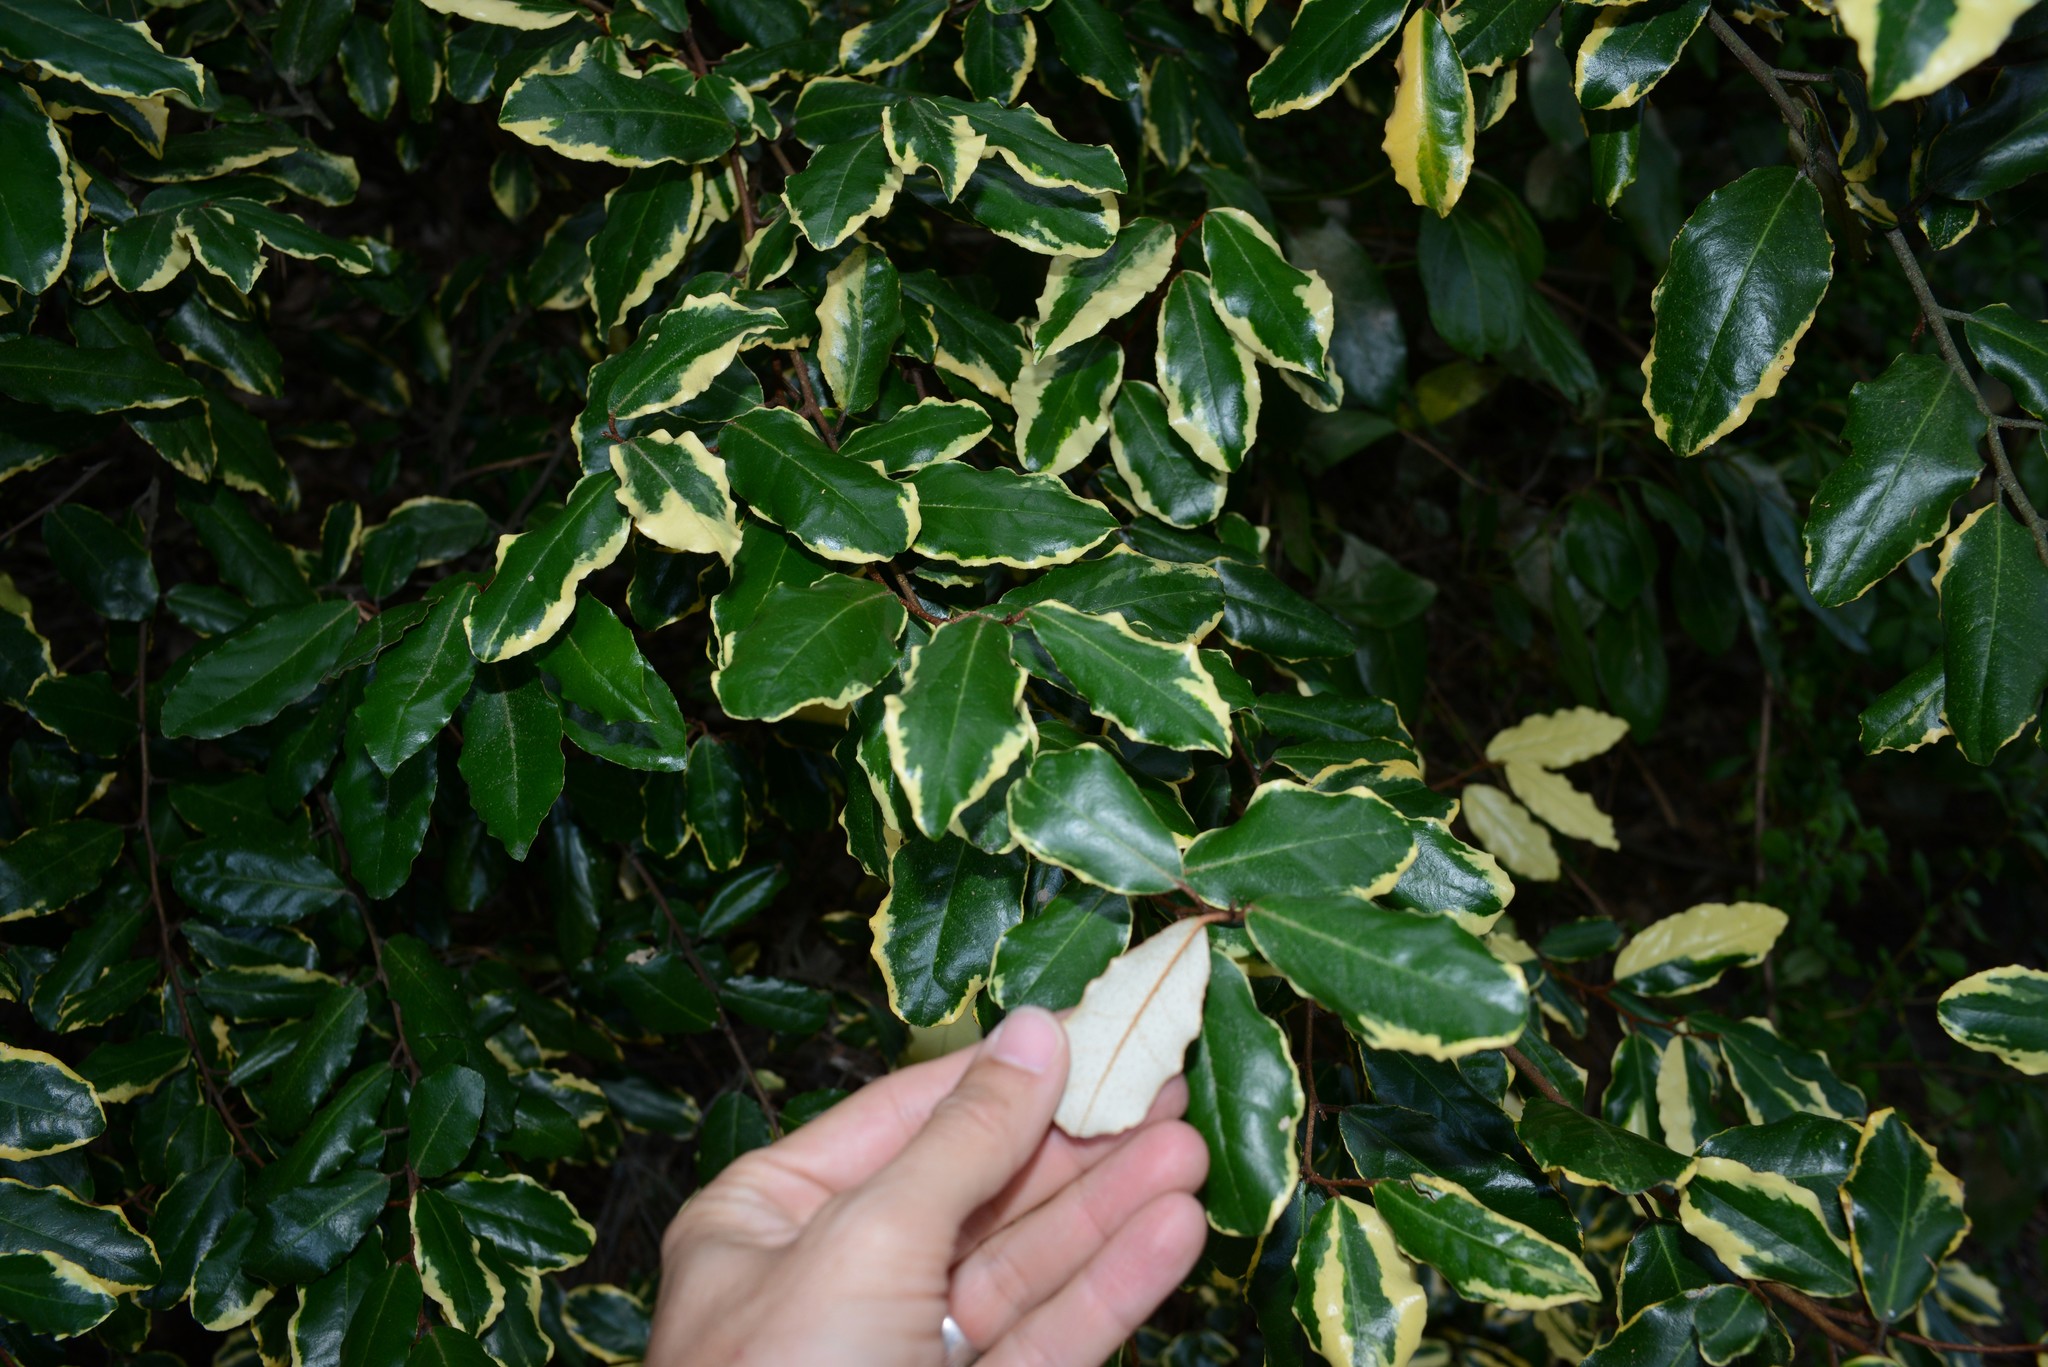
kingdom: Plantae
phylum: Tracheophyta
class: Magnoliopsida
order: Rosales
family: Elaeagnaceae
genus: Elaeagnus
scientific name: Elaeagnus reflexa
